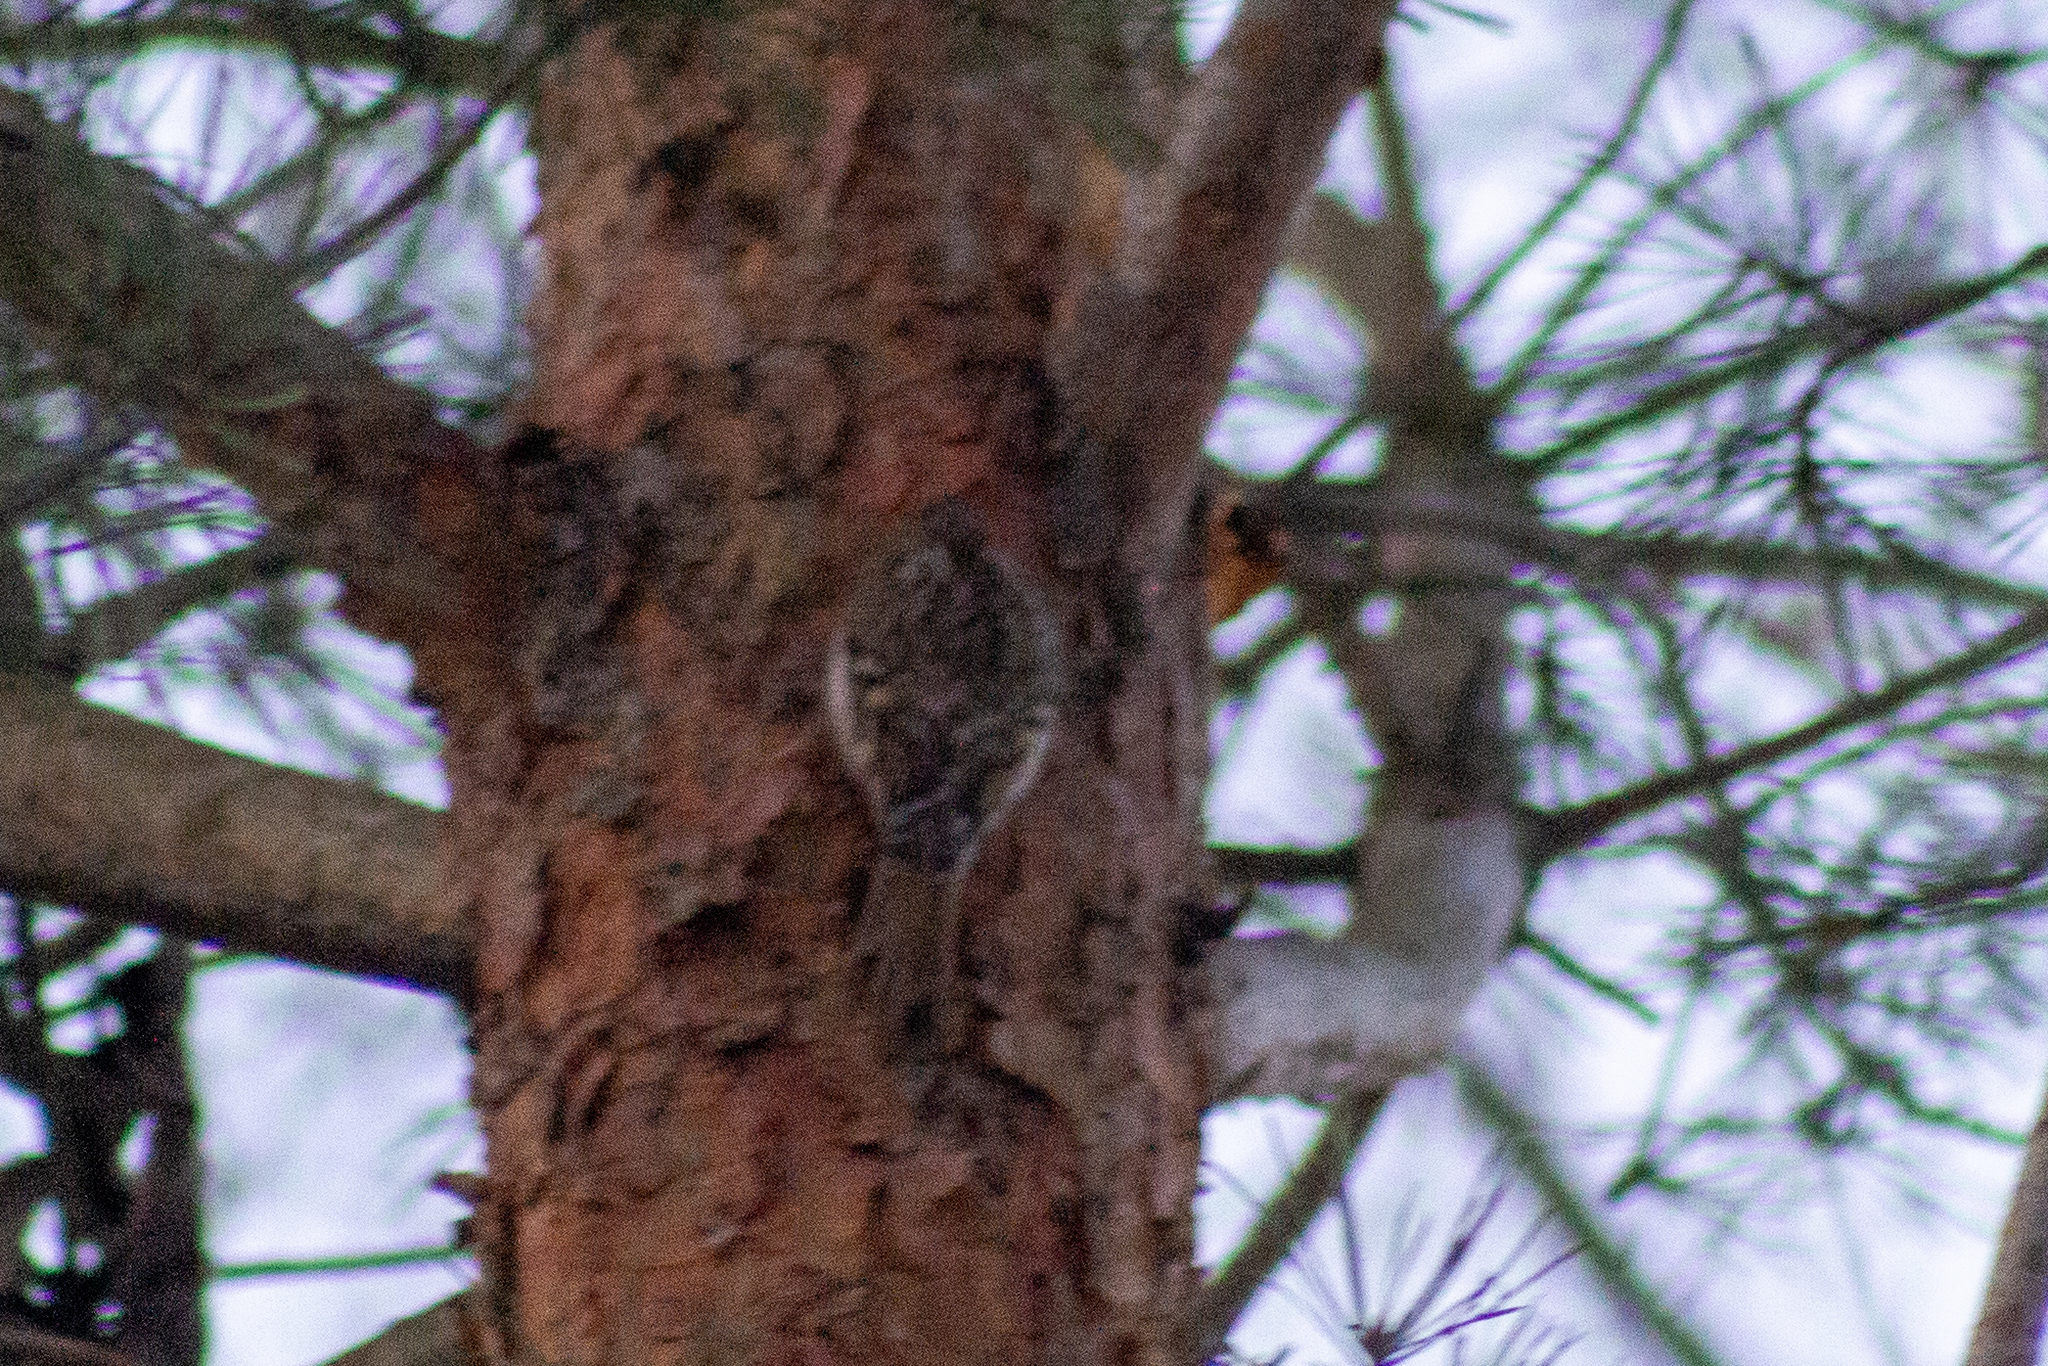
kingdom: Animalia
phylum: Chordata
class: Aves
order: Passeriformes
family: Certhiidae
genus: Certhia
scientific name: Certhia familiaris
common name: Eurasian treecreeper
